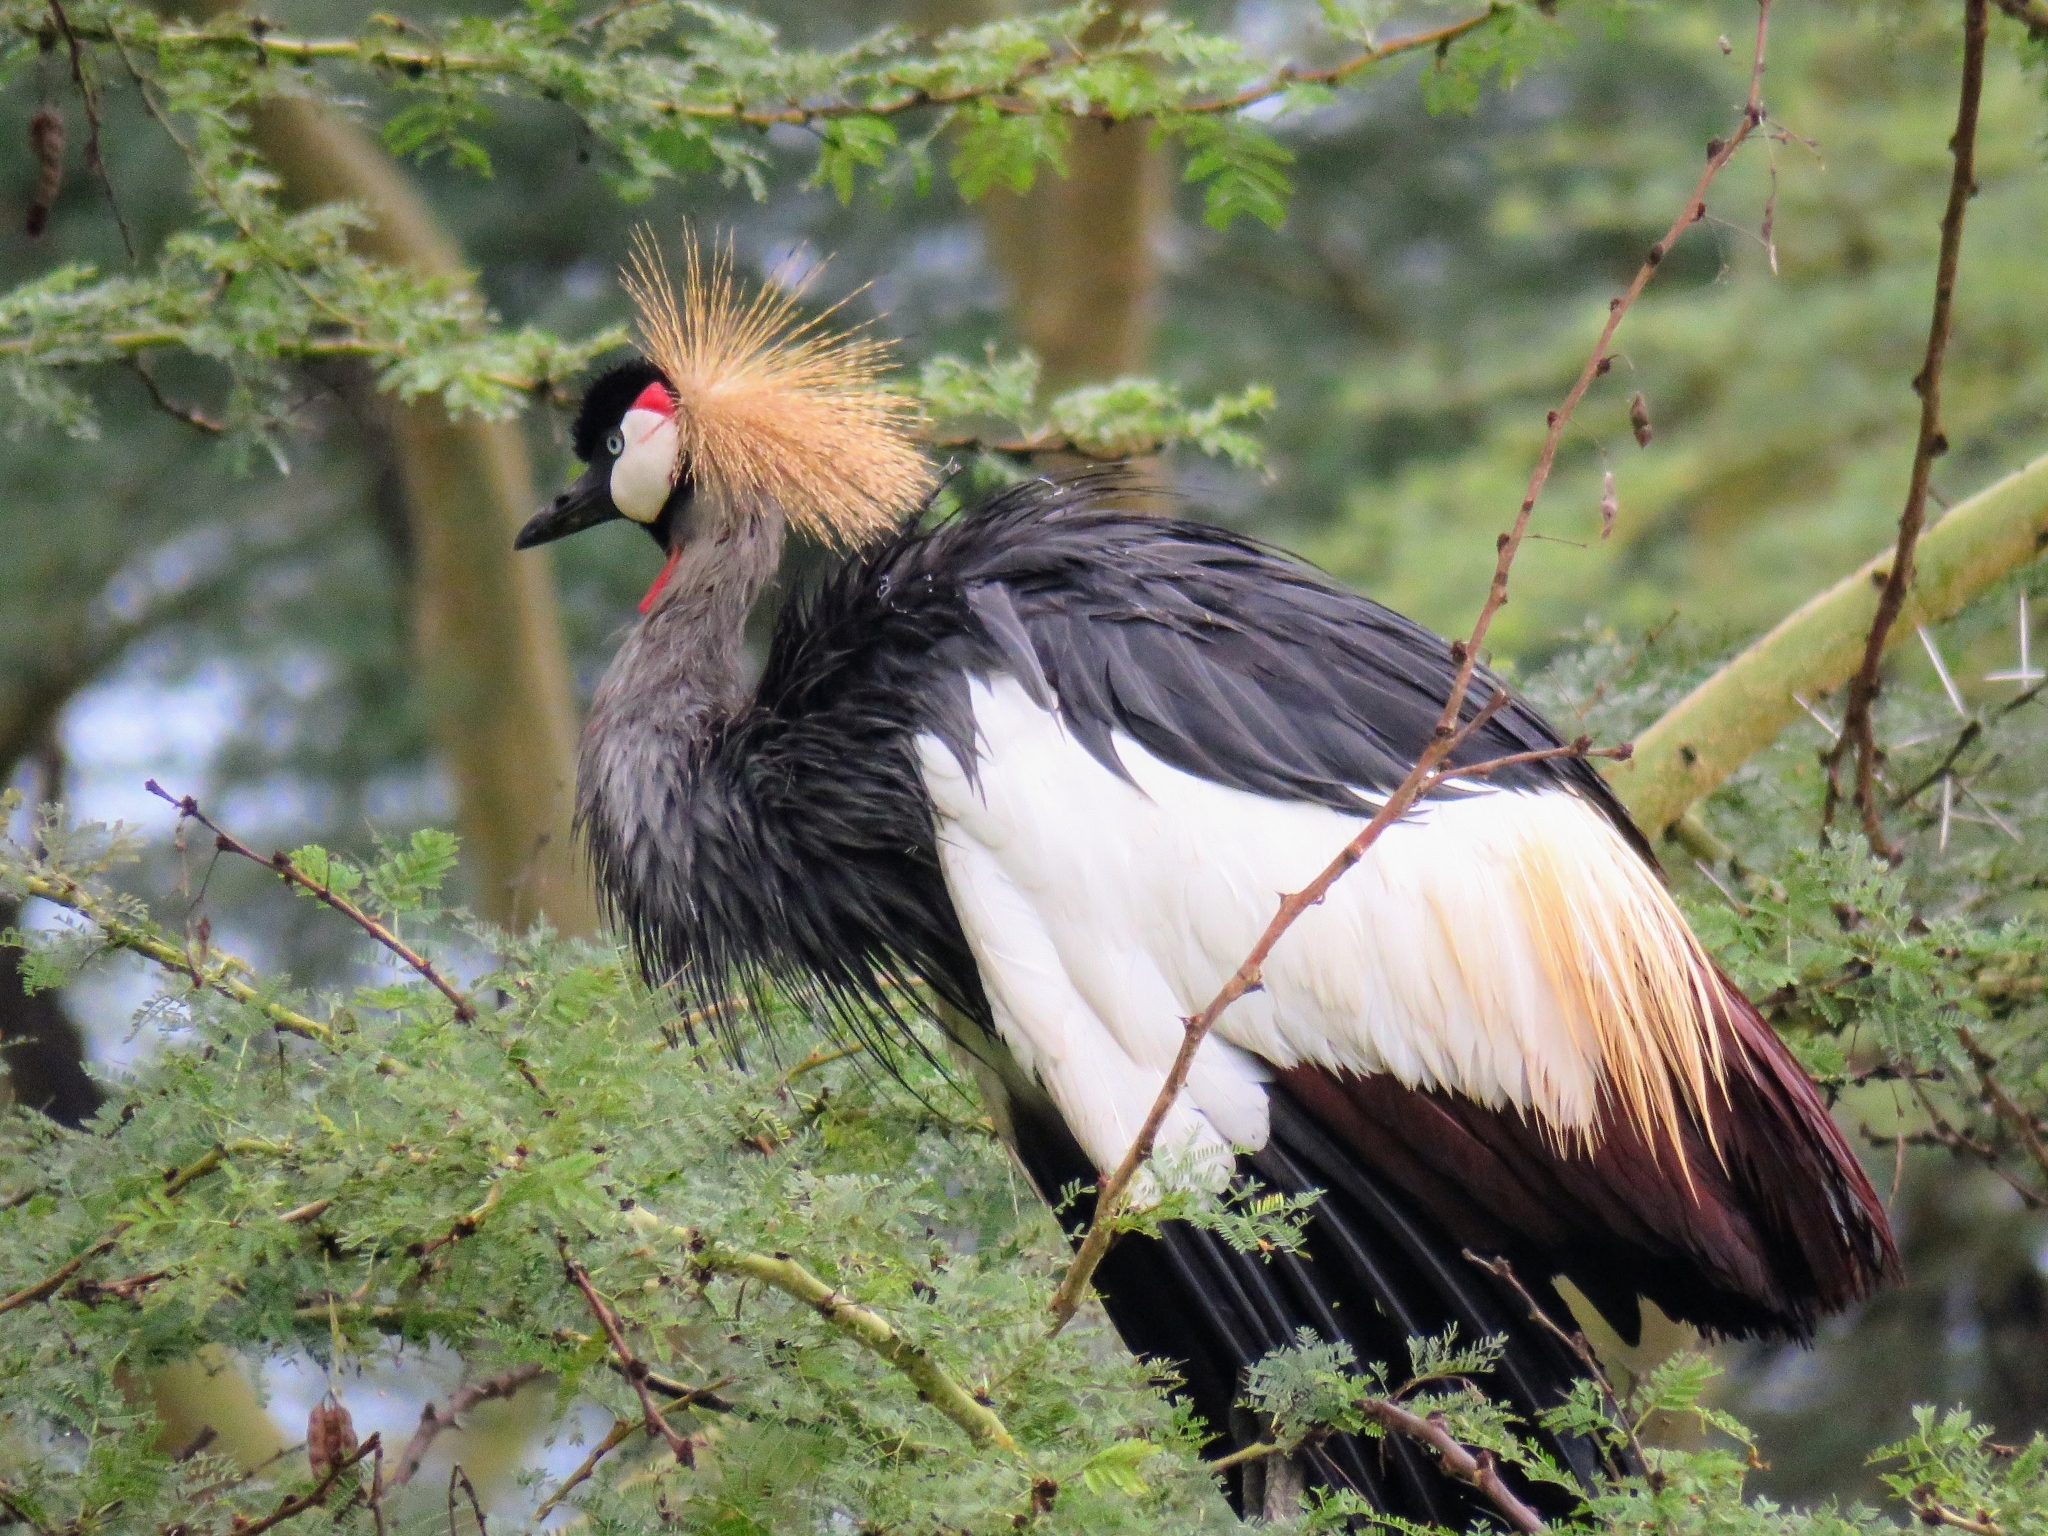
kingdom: Animalia
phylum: Chordata
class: Aves
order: Gruiformes
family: Gruidae
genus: Balearica
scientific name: Balearica regulorum
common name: Grey crowned crane
